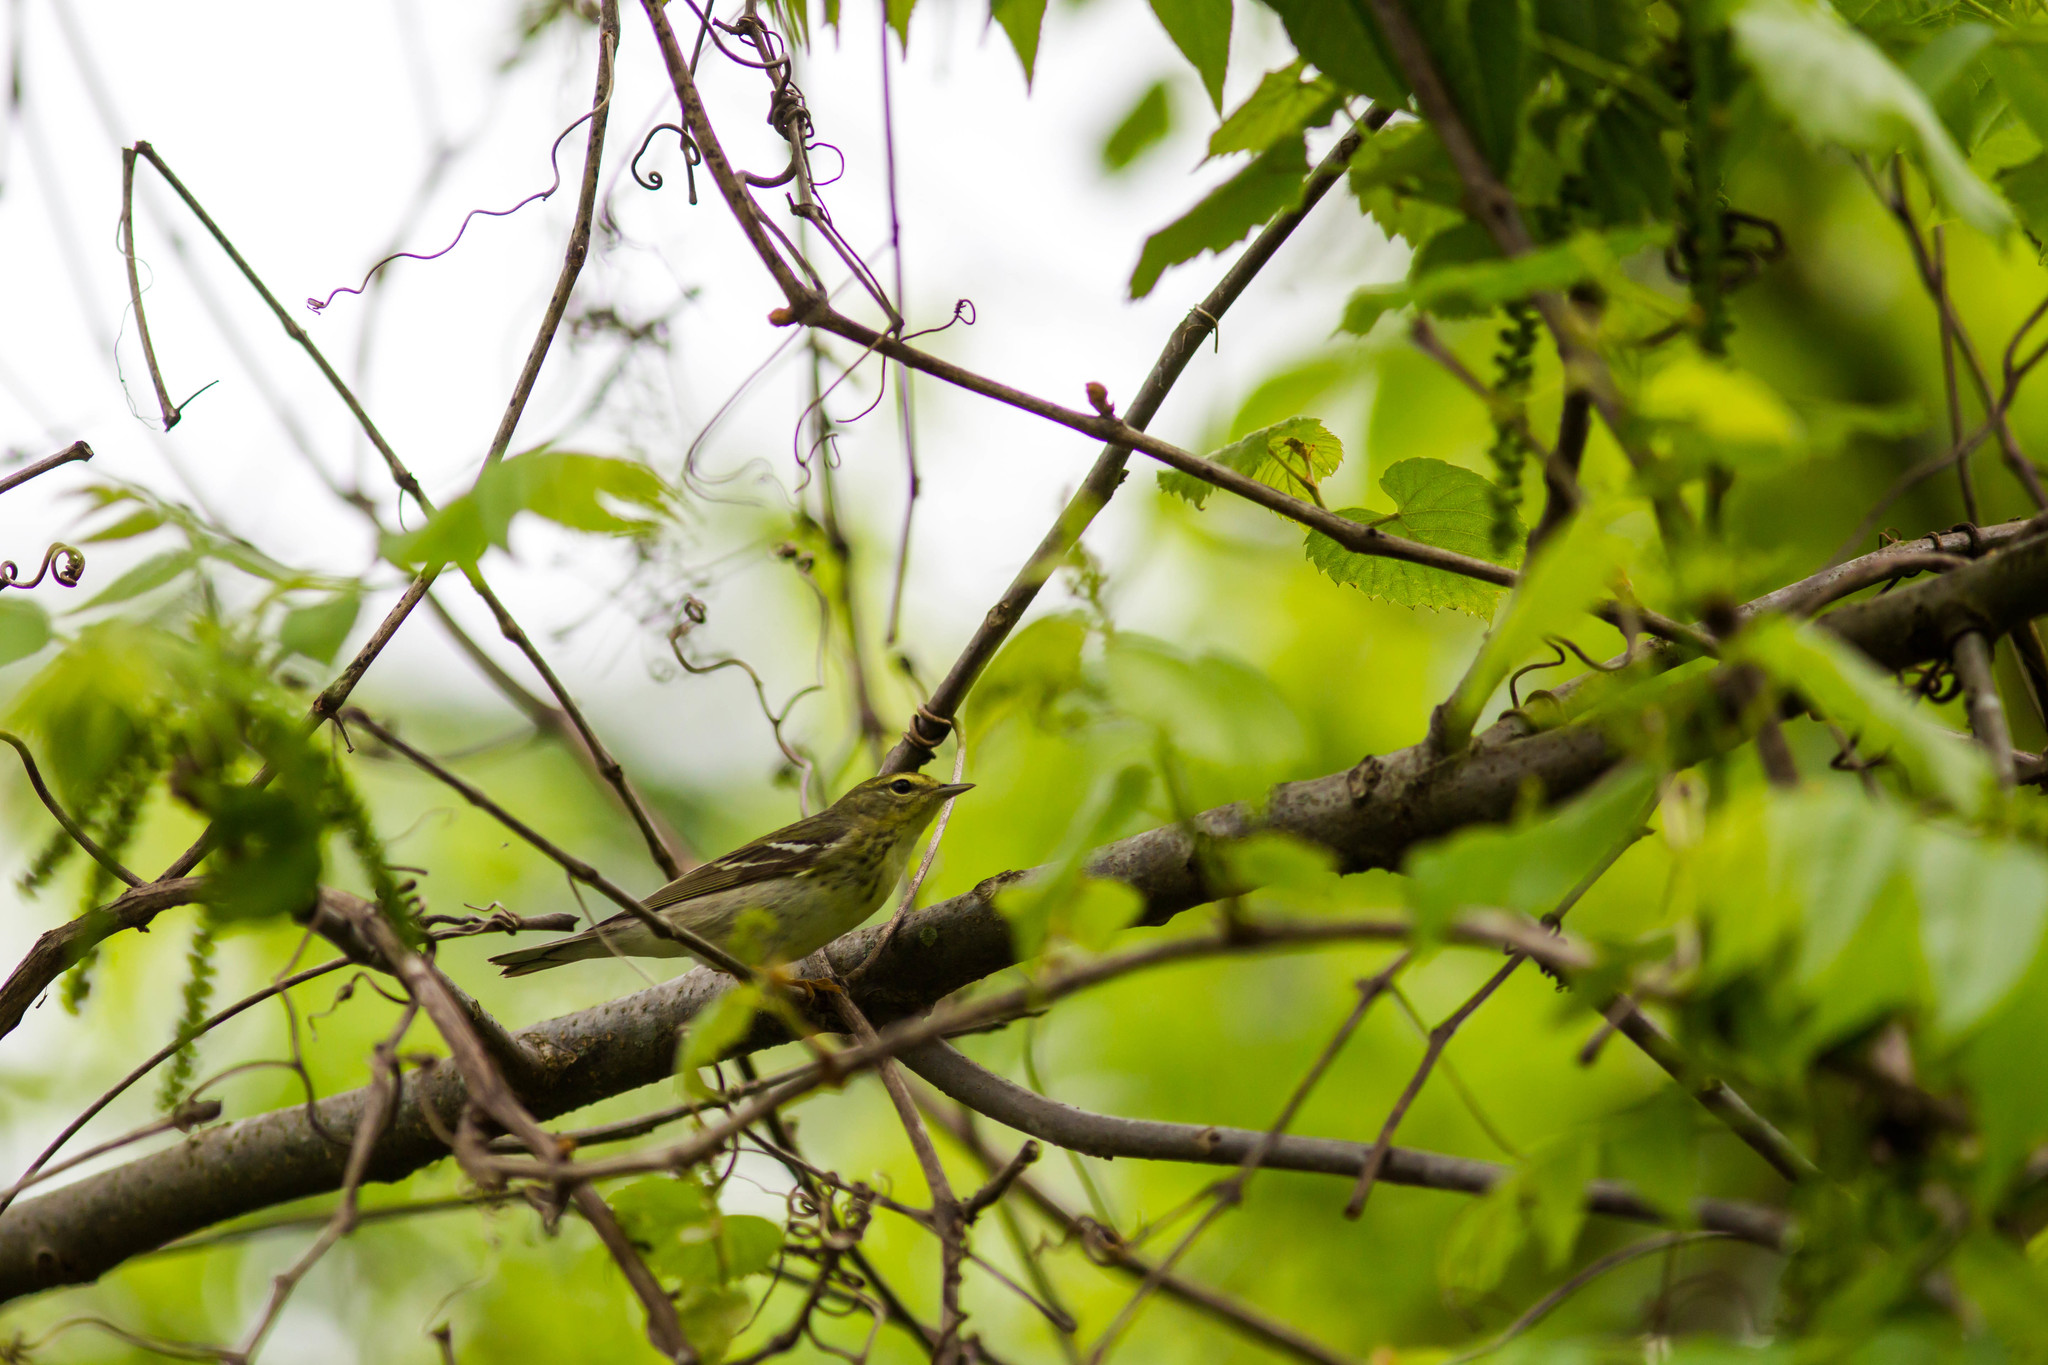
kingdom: Animalia
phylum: Chordata
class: Aves
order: Passeriformes
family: Parulidae
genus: Setophaga
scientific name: Setophaga striata
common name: Blackpoll warbler
